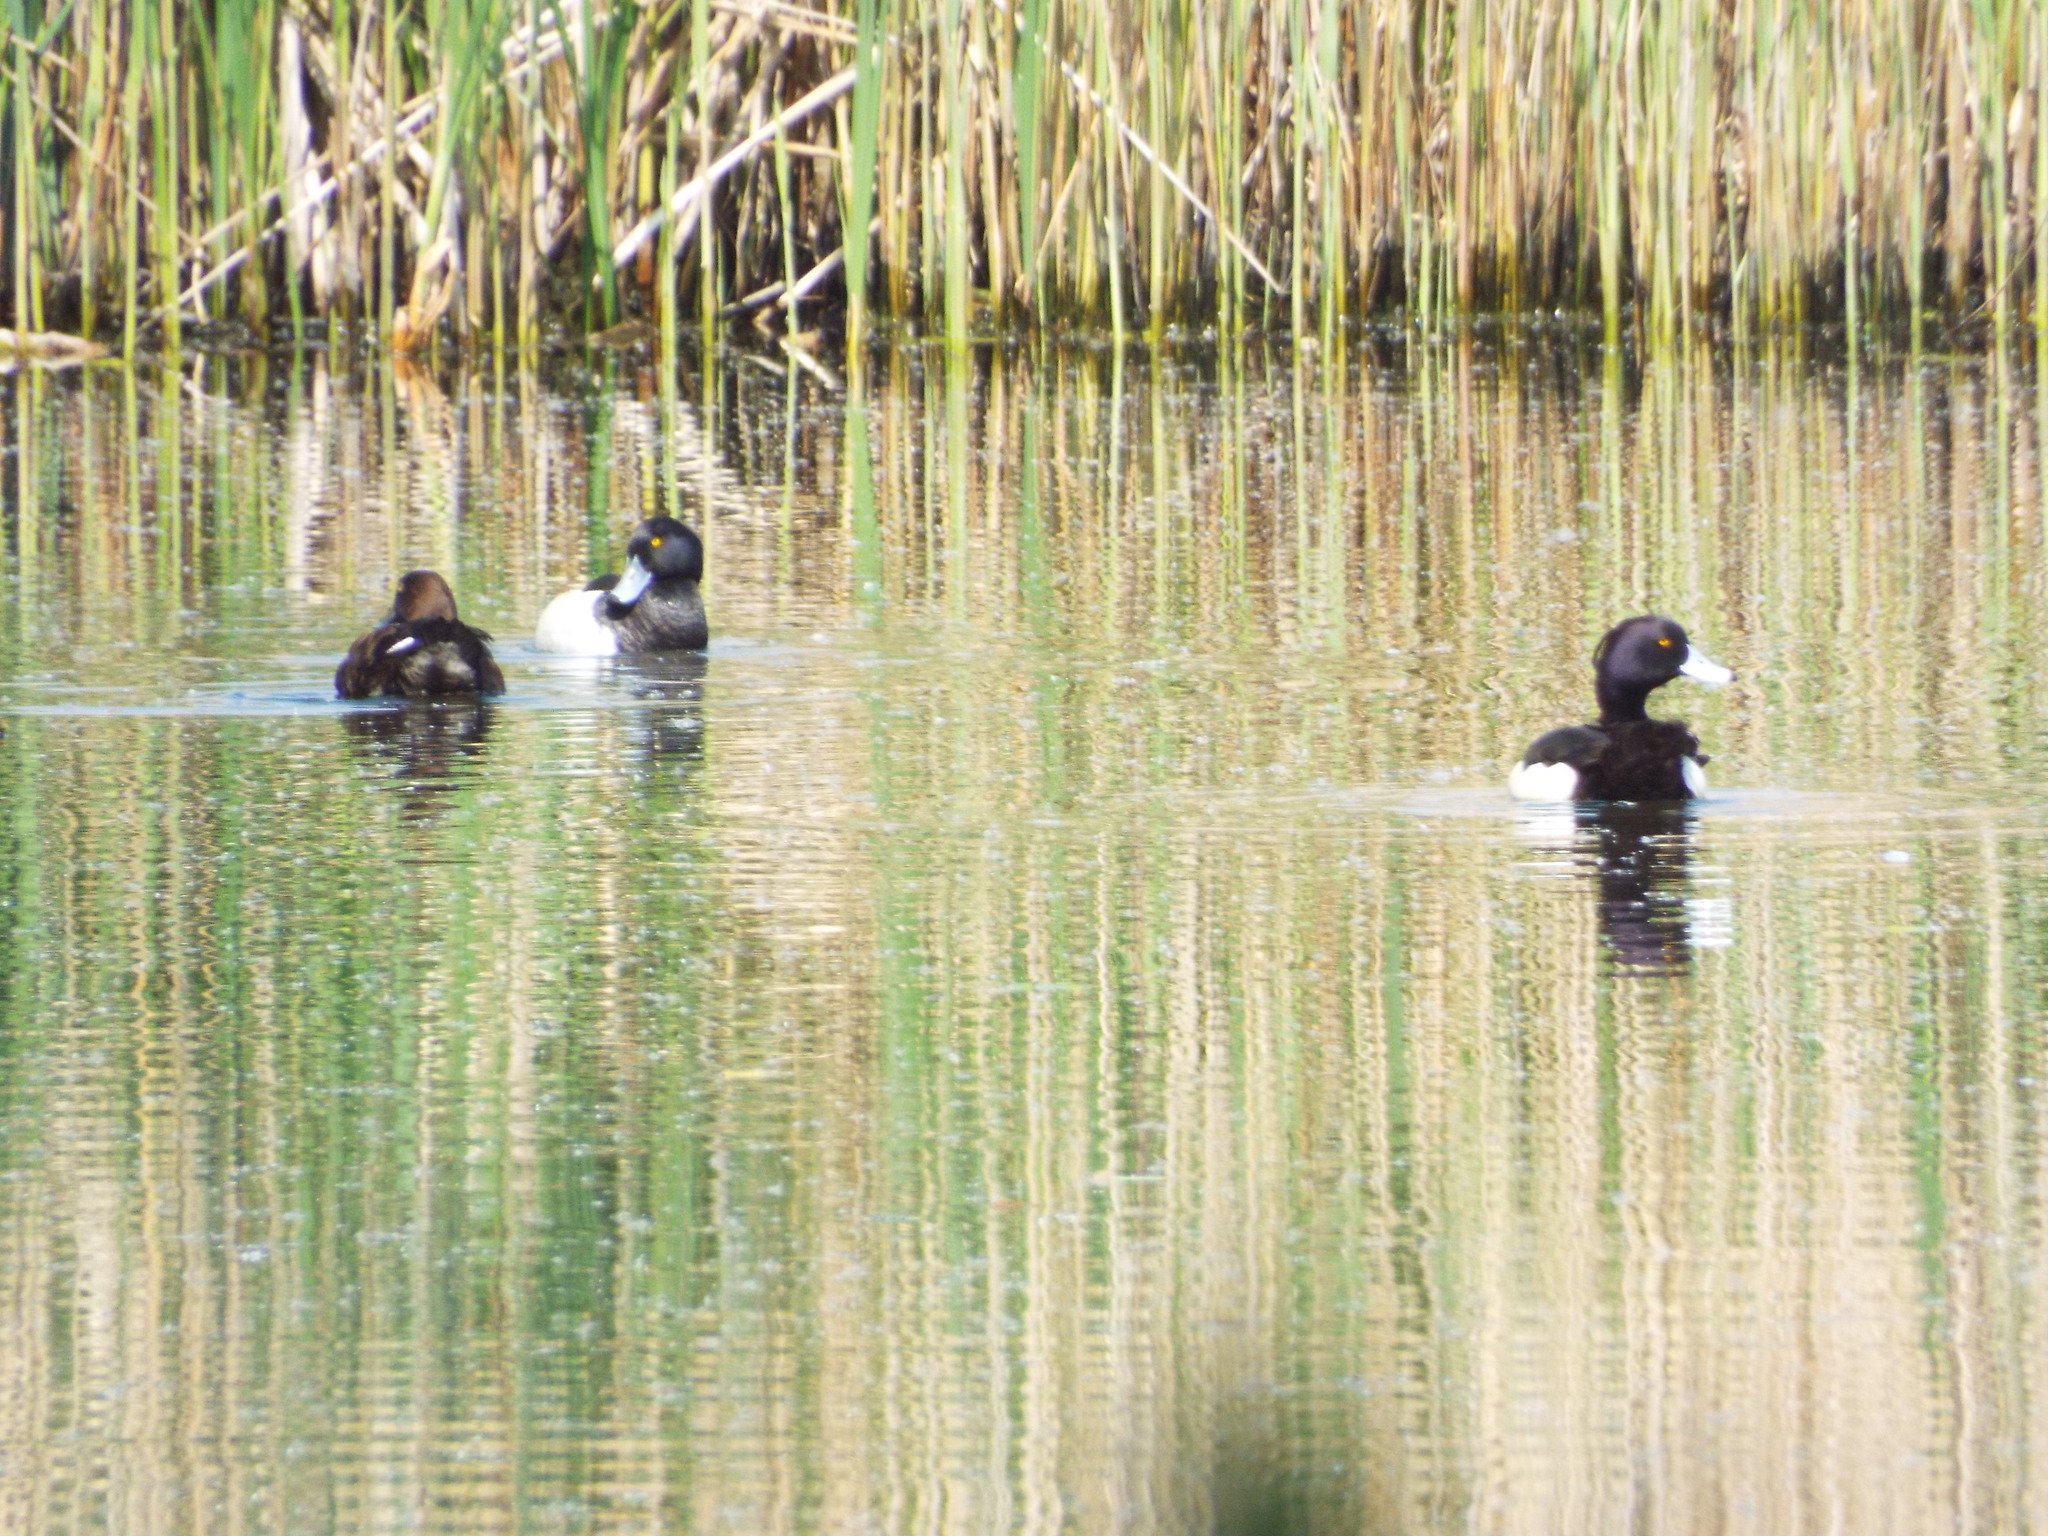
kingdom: Animalia
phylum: Chordata
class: Aves
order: Anseriformes
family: Anatidae
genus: Aythya
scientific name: Aythya fuligula
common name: Tufted duck
